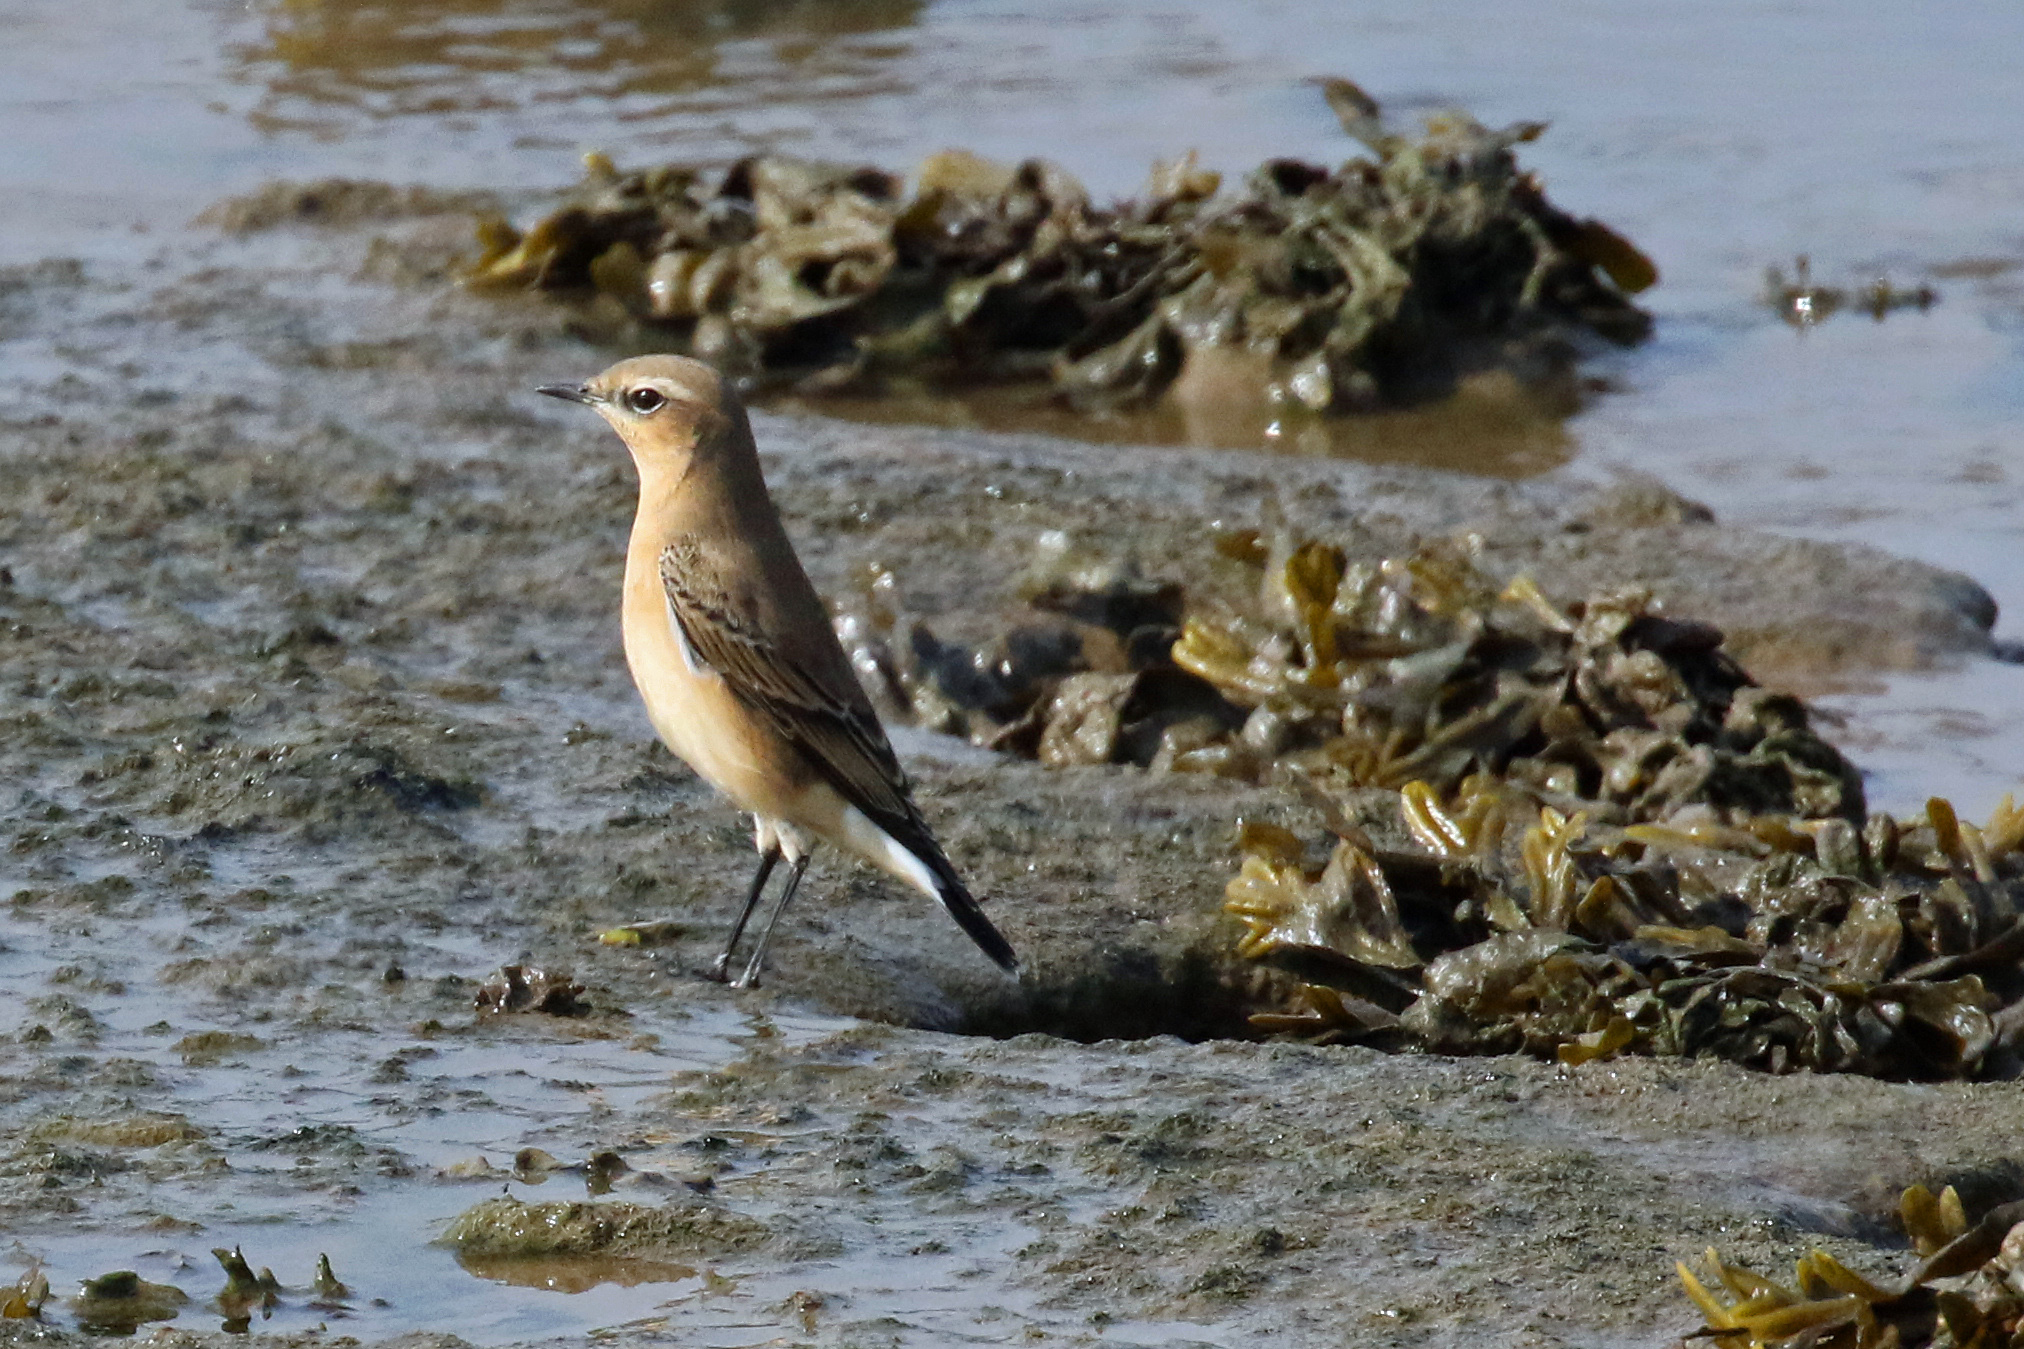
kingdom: Animalia
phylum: Chordata
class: Aves
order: Passeriformes
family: Muscicapidae
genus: Oenanthe
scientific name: Oenanthe oenanthe
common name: Northern wheatear
